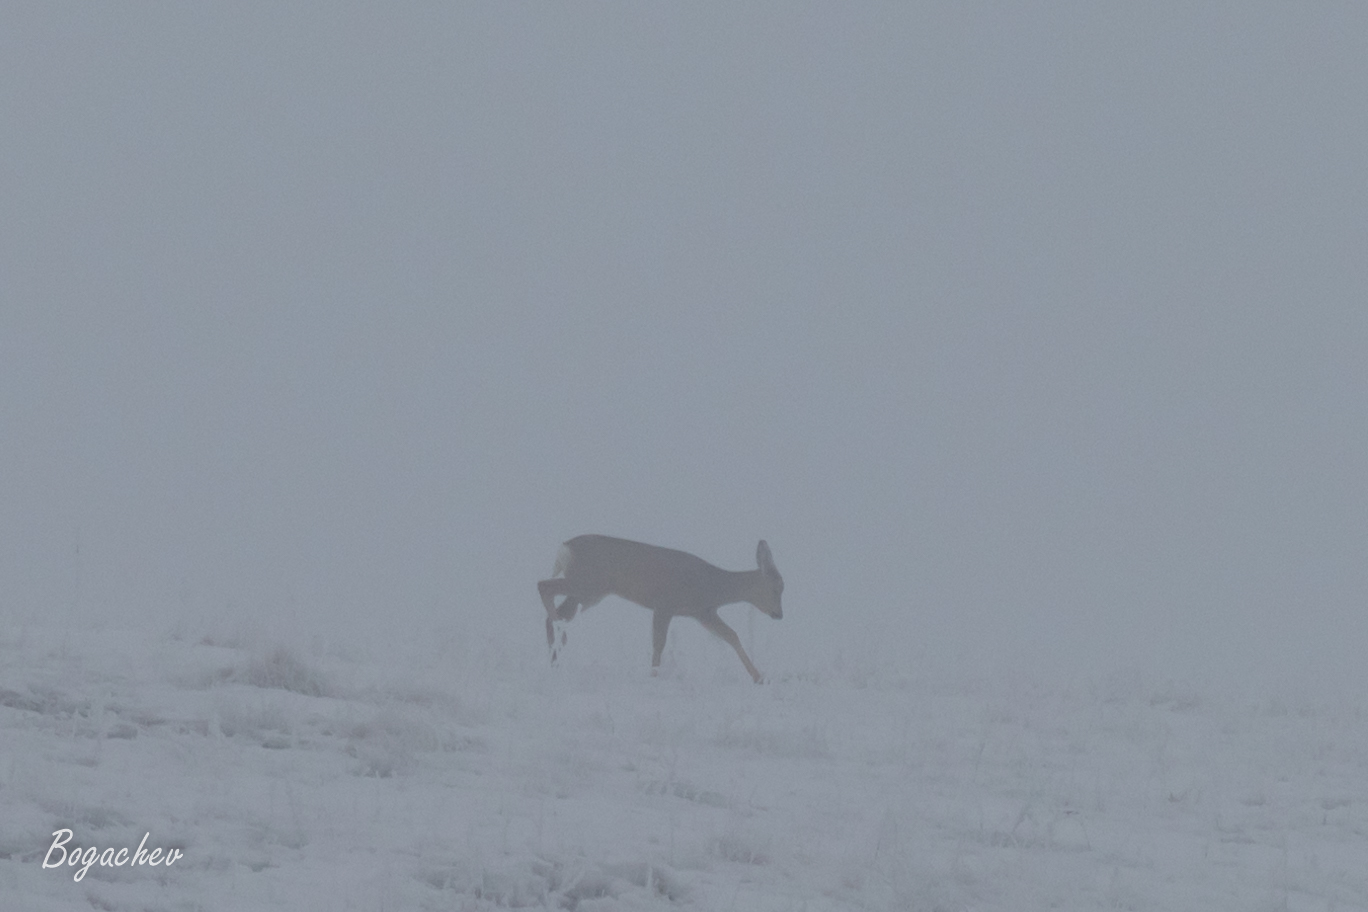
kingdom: Animalia
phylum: Chordata
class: Mammalia
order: Artiodactyla
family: Cervidae
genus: Capreolus
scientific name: Capreolus pygargus
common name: Siberian roe
